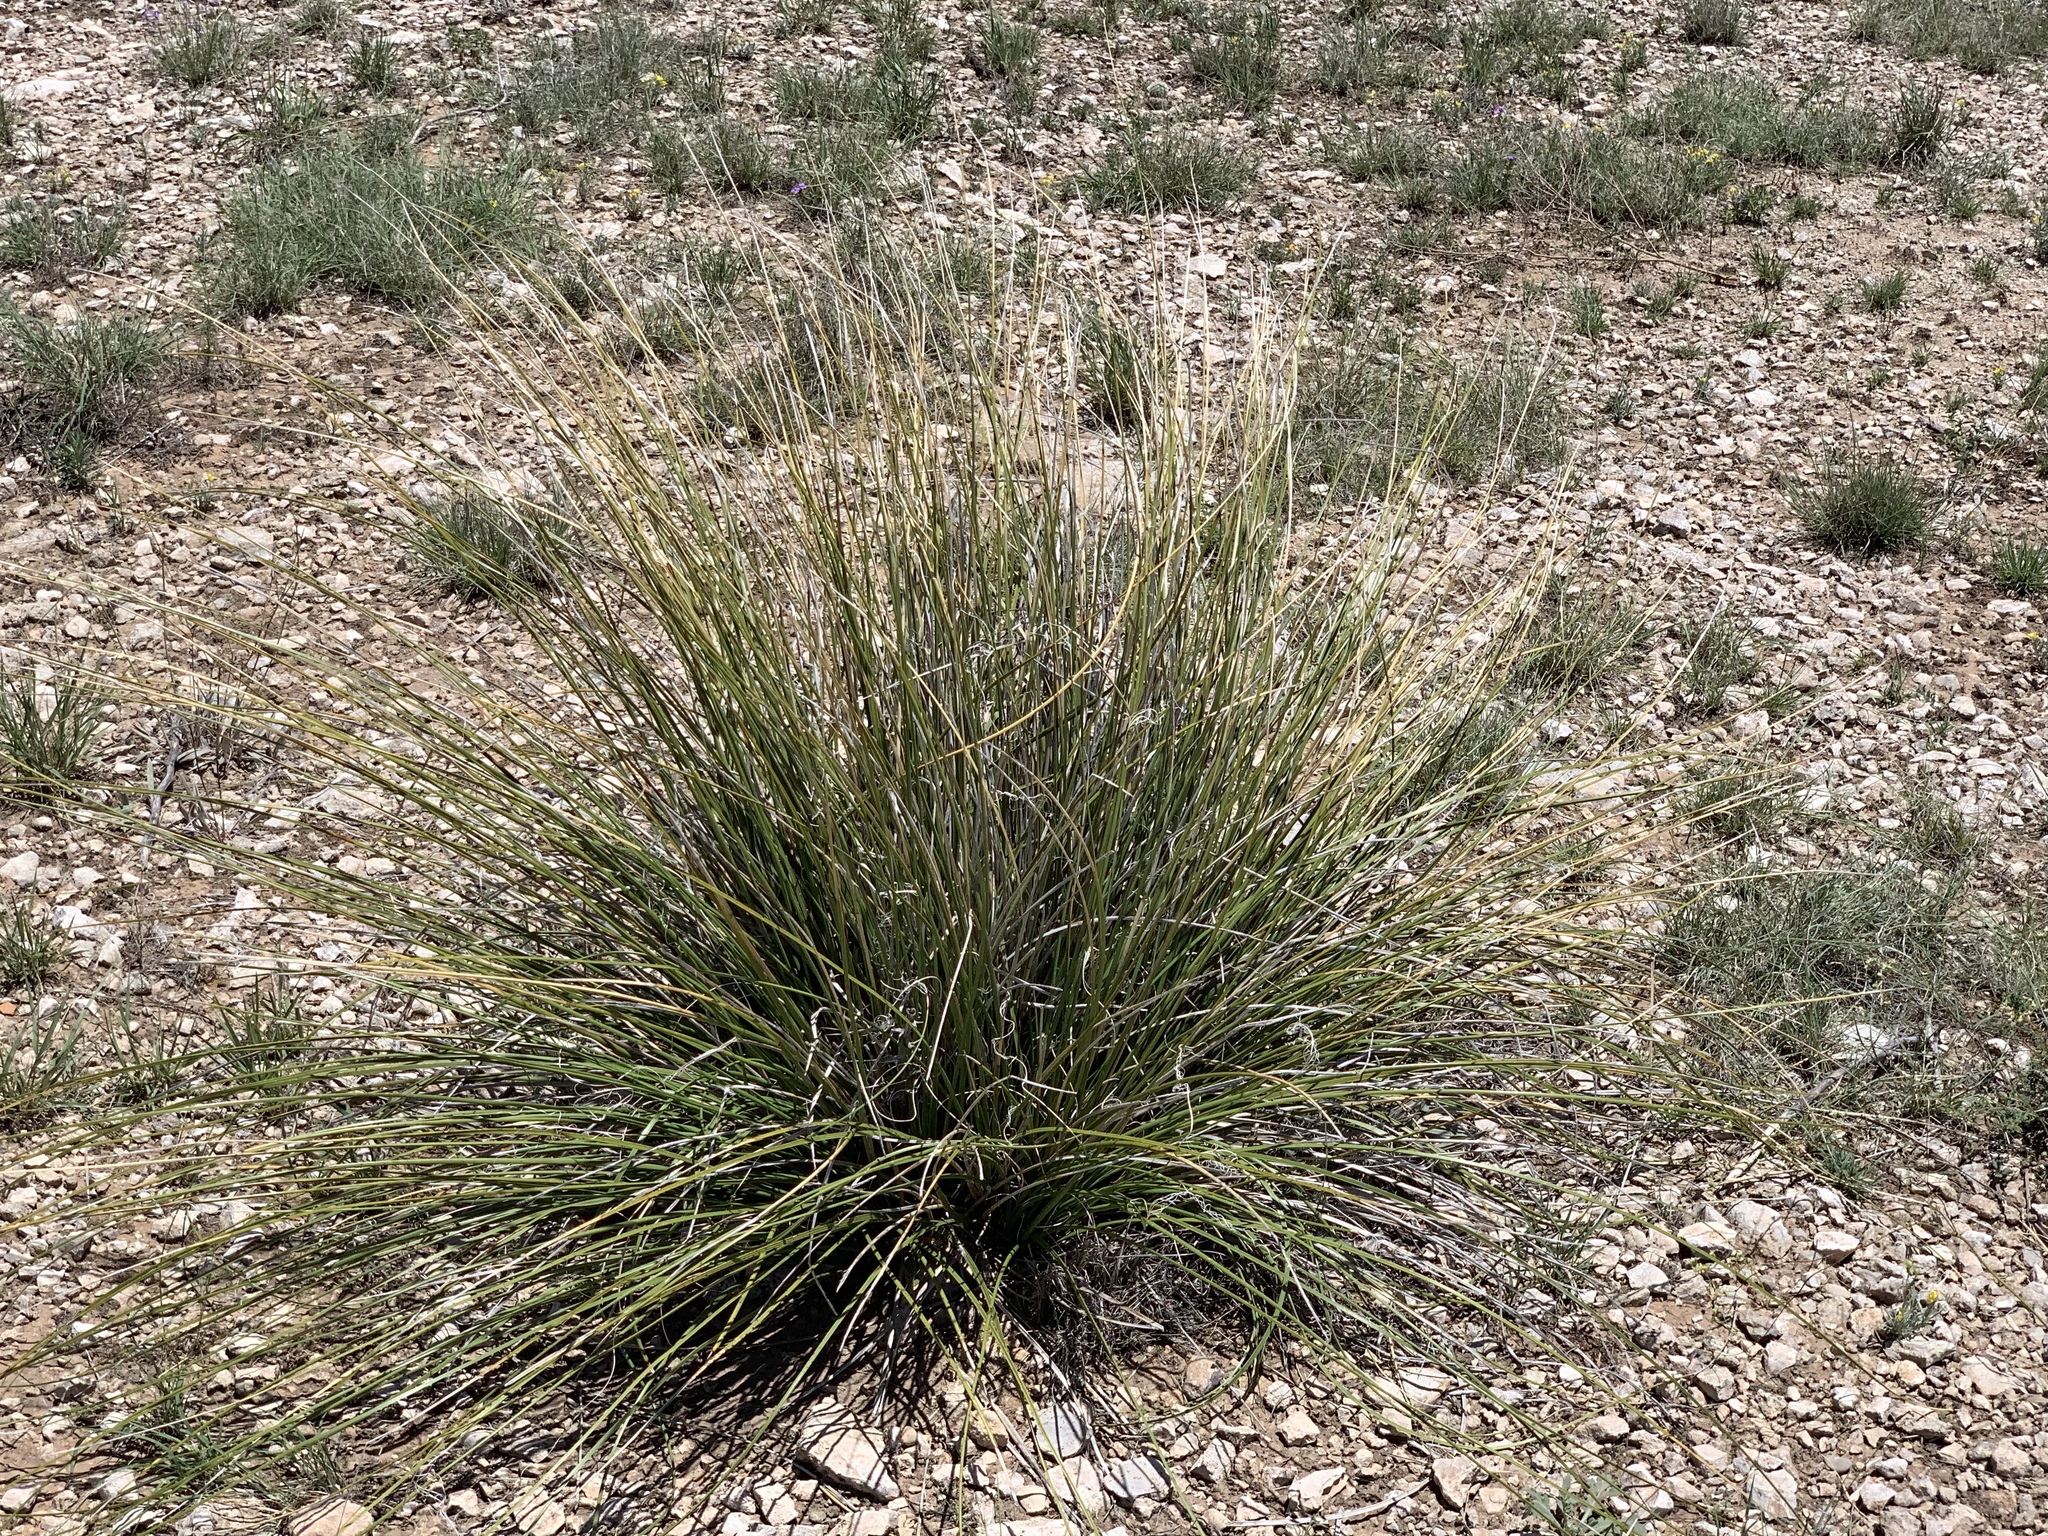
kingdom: Plantae
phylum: Tracheophyta
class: Liliopsida
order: Asparagales
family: Asparagaceae
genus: Nolina
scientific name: Nolina texana
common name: Texas sacahuiste
